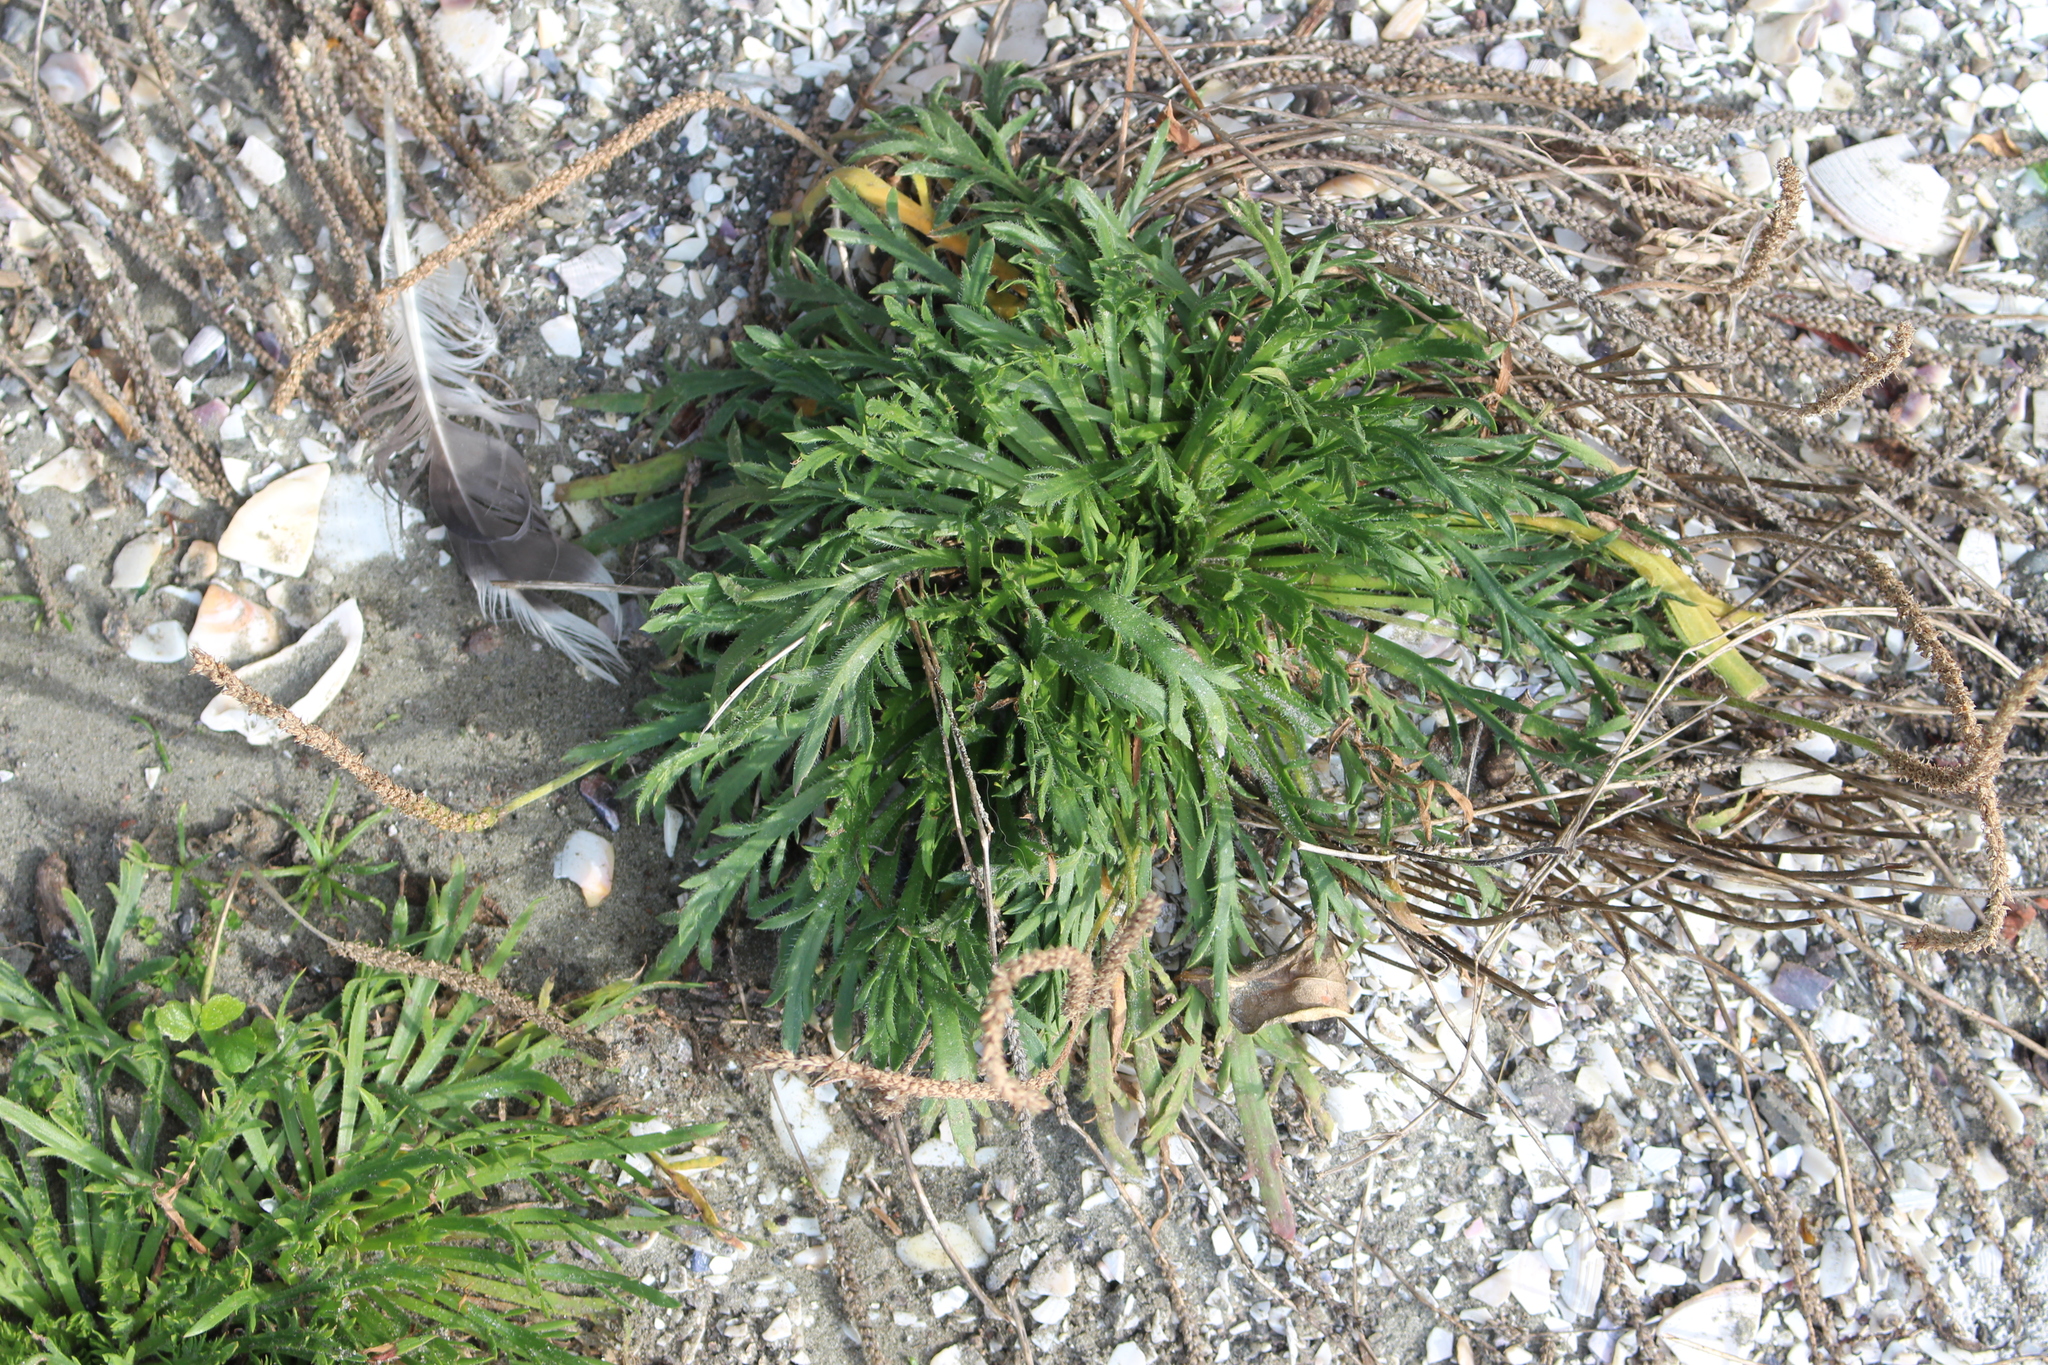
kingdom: Plantae
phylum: Tracheophyta
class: Magnoliopsida
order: Lamiales
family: Plantaginaceae
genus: Plantago
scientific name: Plantago coronopus
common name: Buck's-horn plantain
